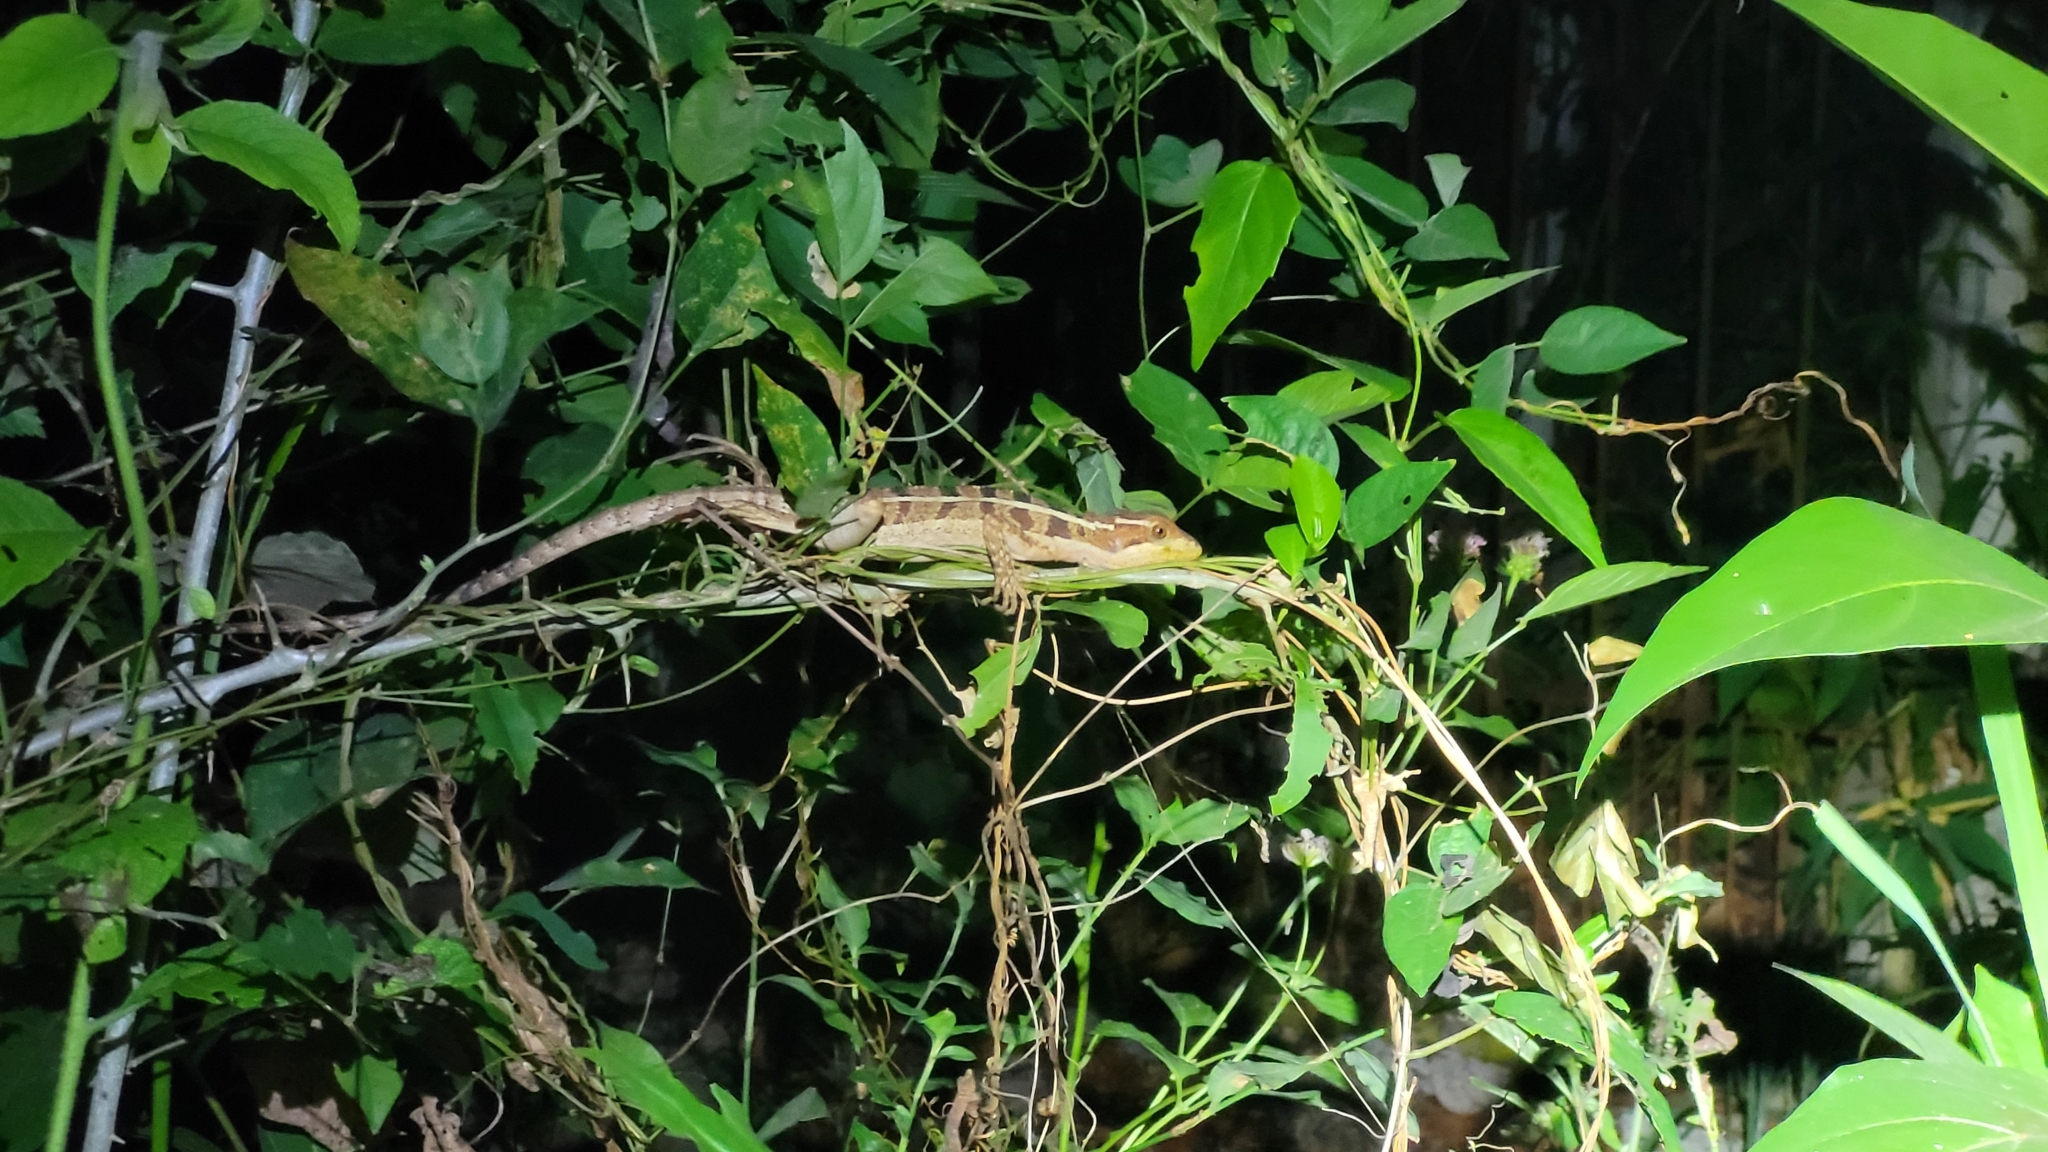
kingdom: Animalia
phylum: Chordata
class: Squamata
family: Corytophanidae
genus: Basiliscus
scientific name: Basiliscus vittatus
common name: Brown basilisk
